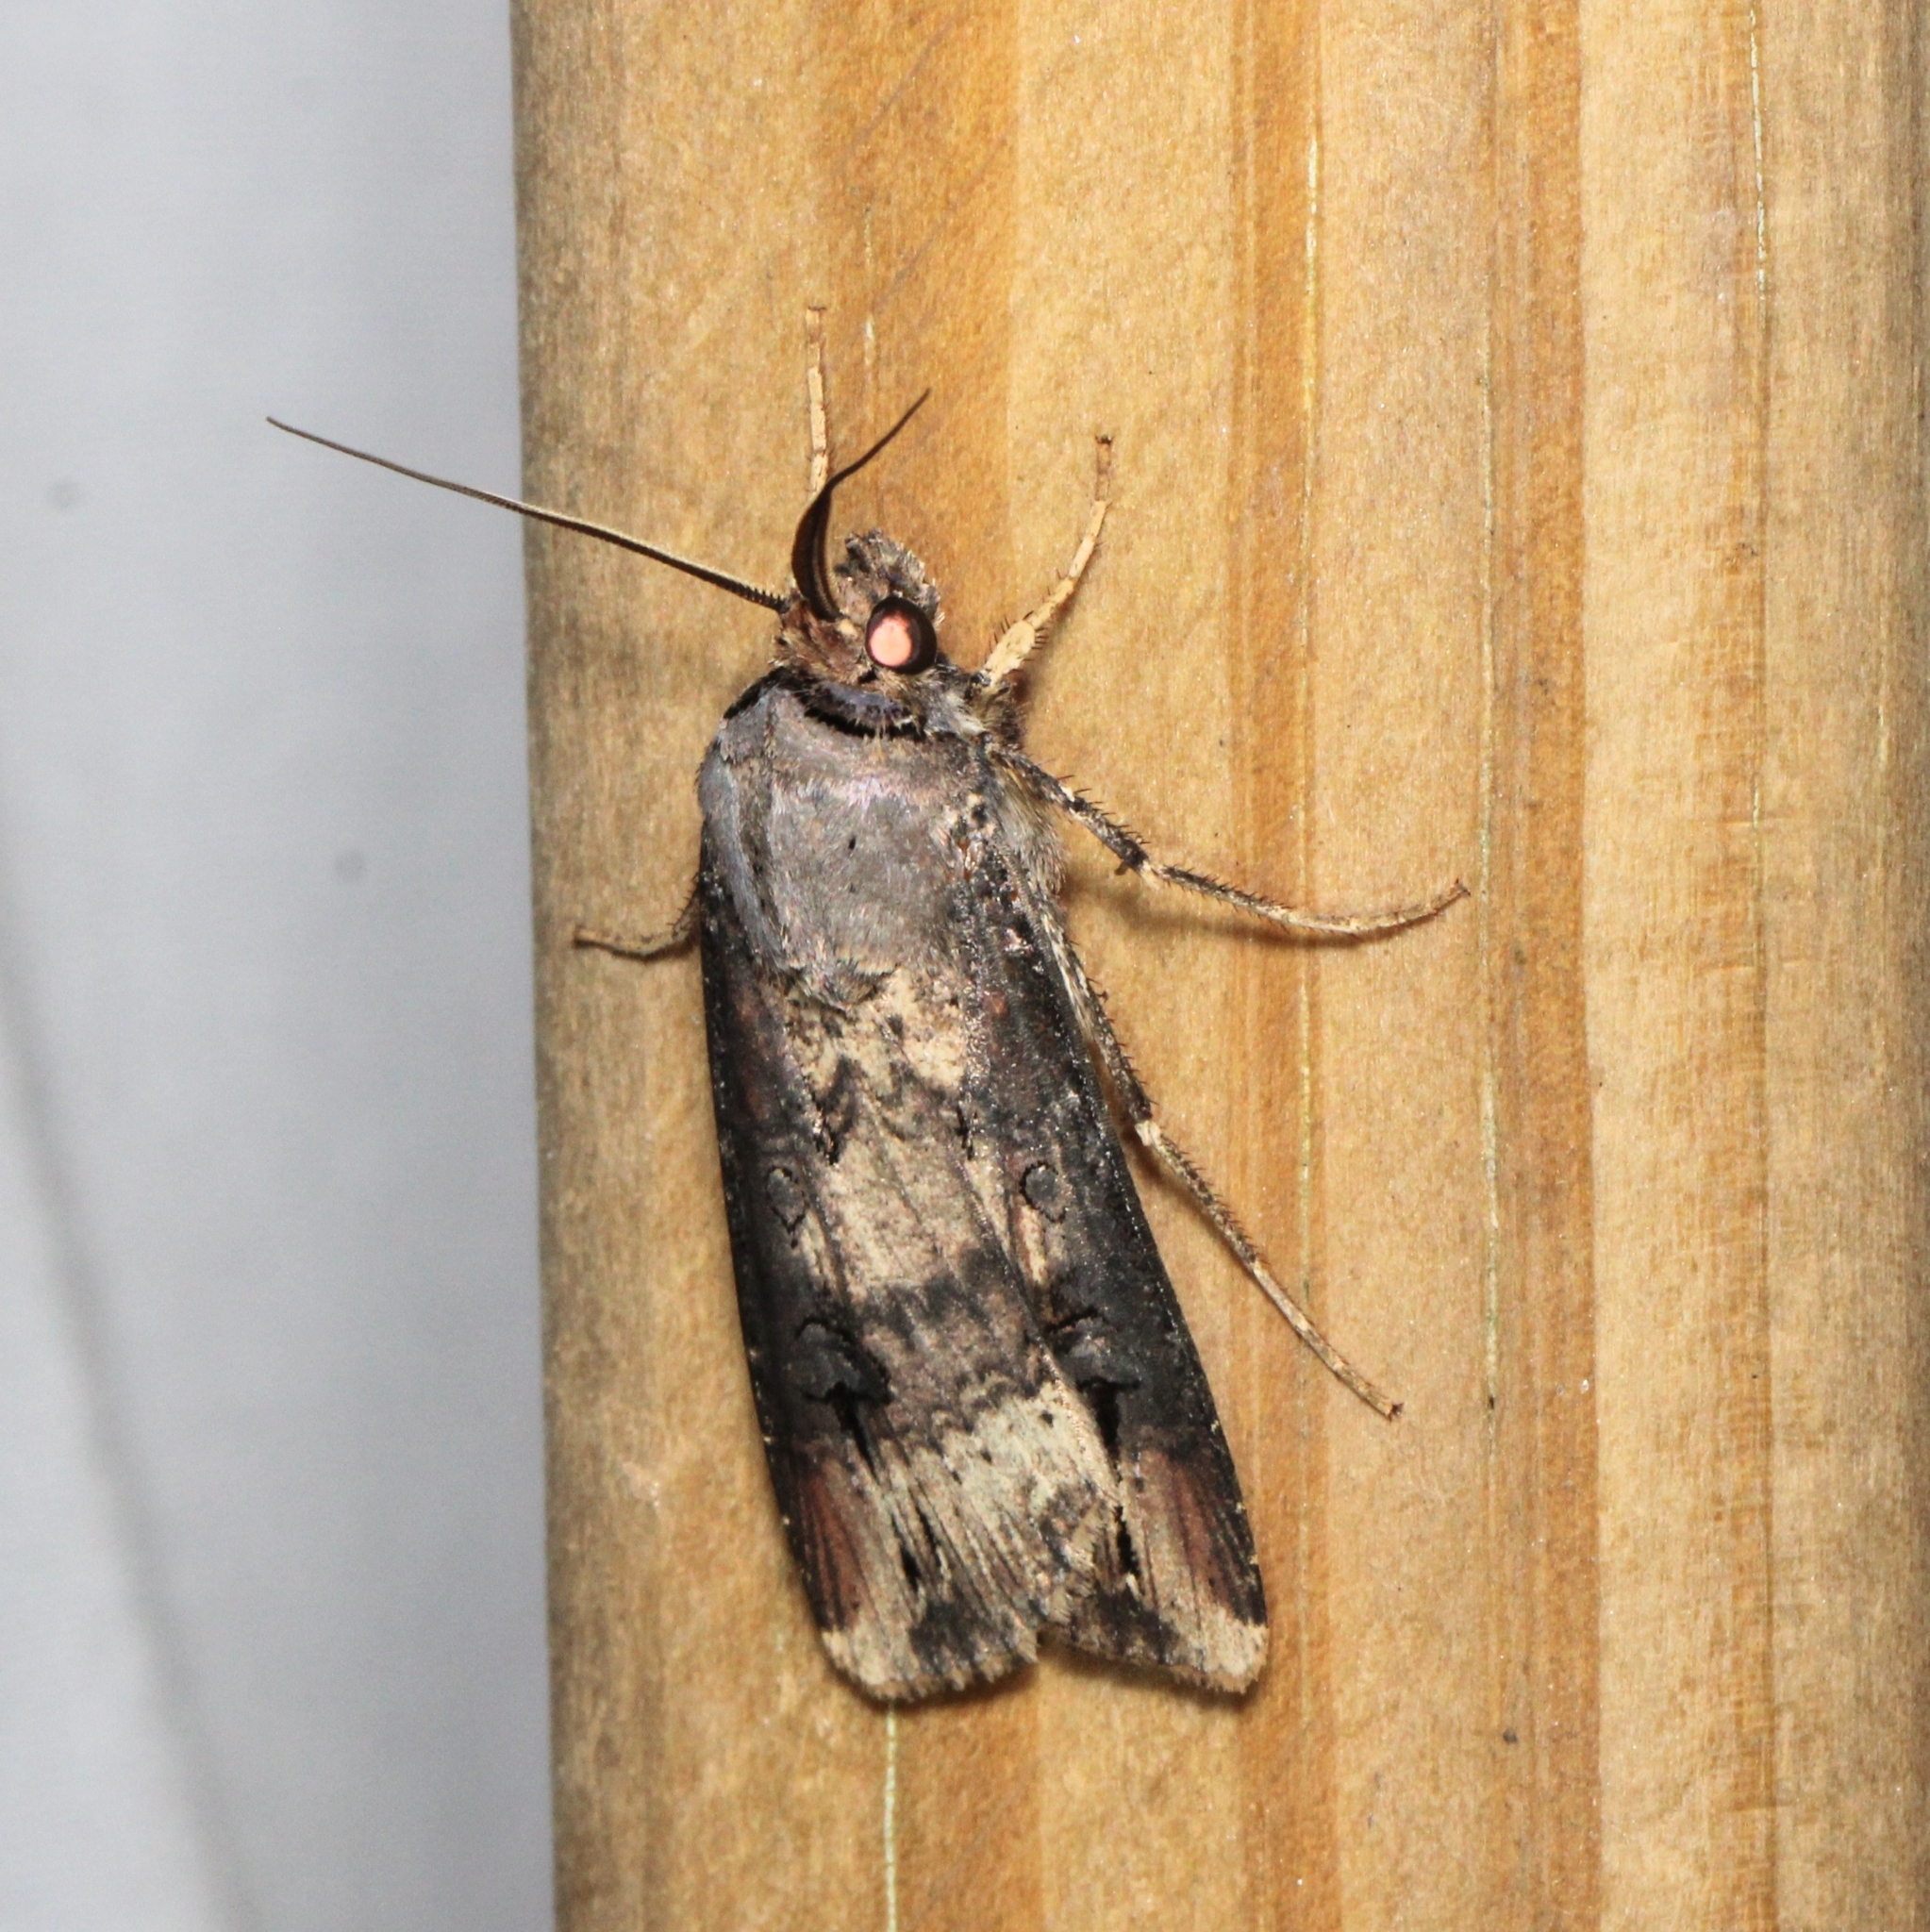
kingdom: Animalia
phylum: Arthropoda
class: Insecta
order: Lepidoptera
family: Noctuidae
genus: Agrotis
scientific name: Agrotis ipsilon
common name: Dark sword-grass
